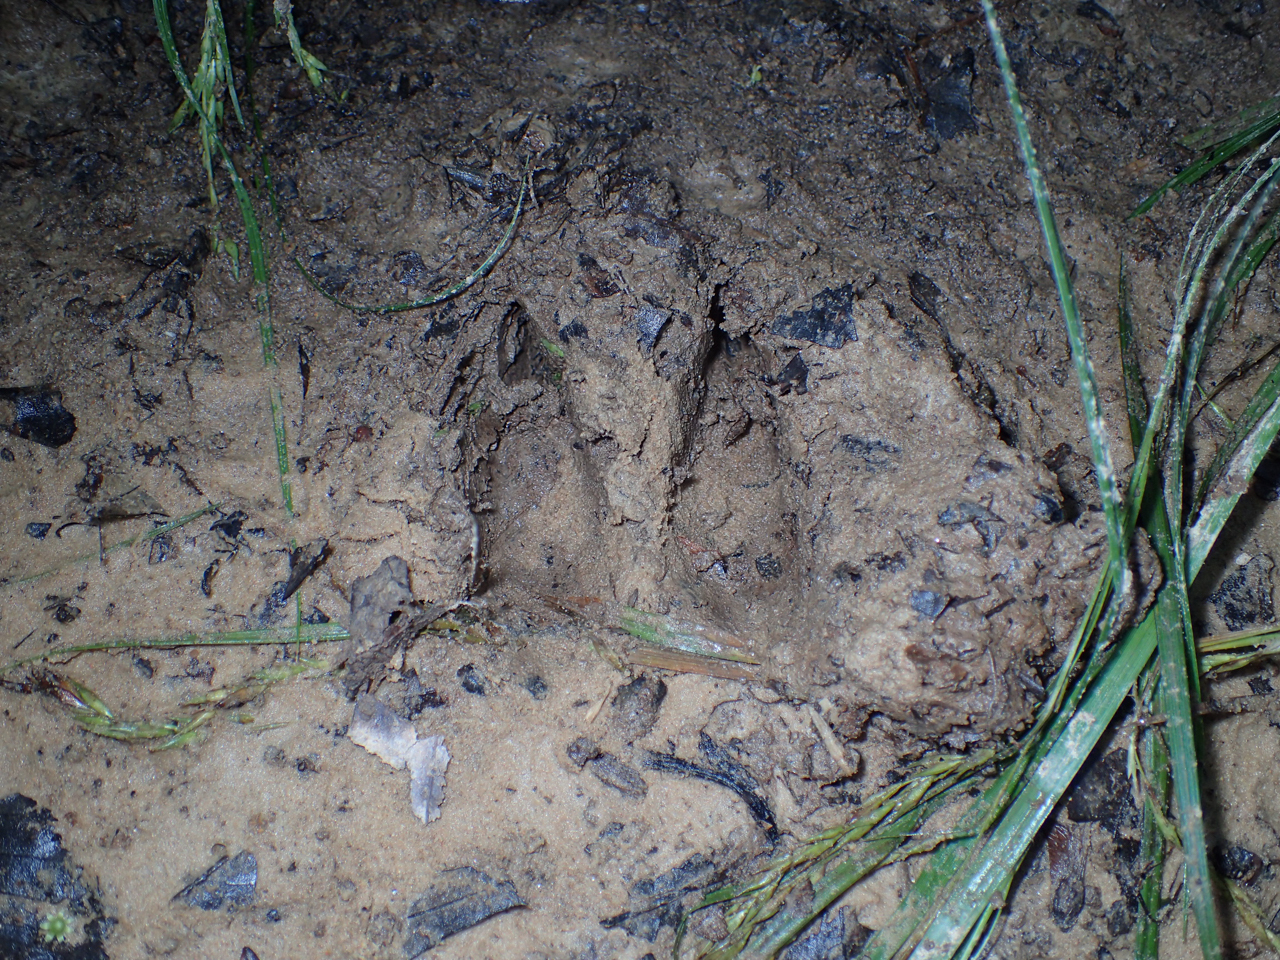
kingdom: Animalia
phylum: Chordata
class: Mammalia
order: Artiodactyla
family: Cervidae
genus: Odocoileus
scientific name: Odocoileus virginianus
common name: White-tailed deer
